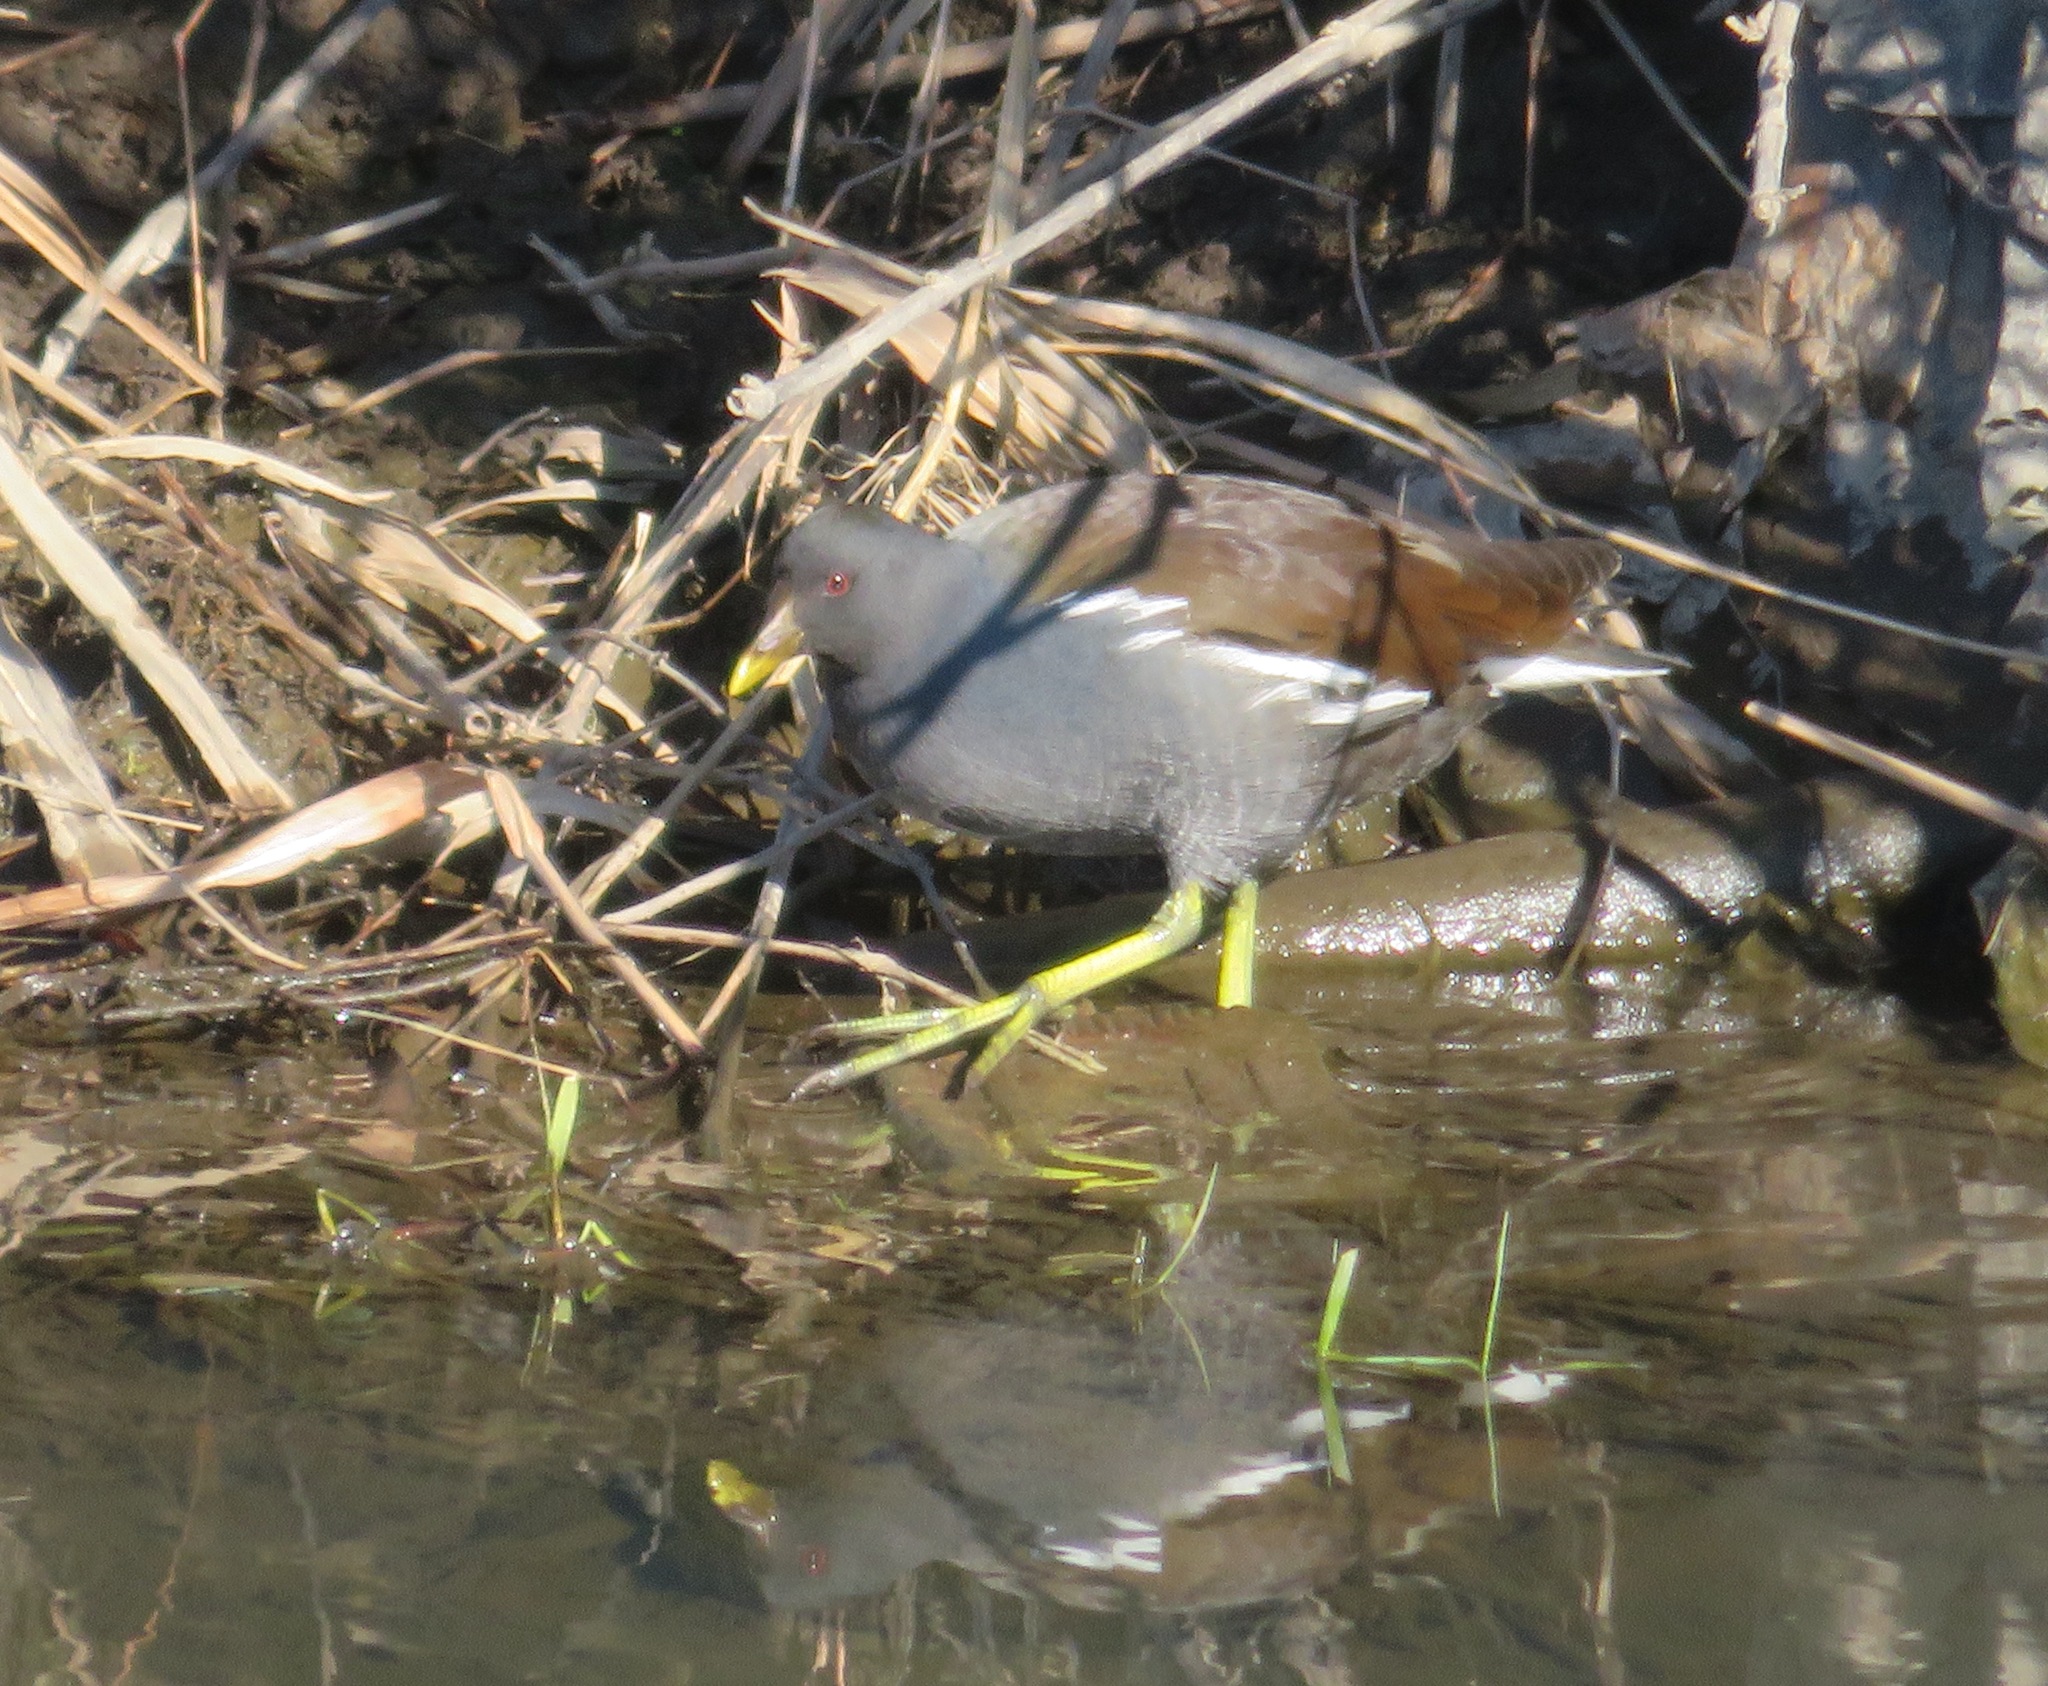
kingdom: Animalia
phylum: Chordata
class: Aves
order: Gruiformes
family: Rallidae
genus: Gallinula
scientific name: Gallinula chloropus
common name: Common moorhen
